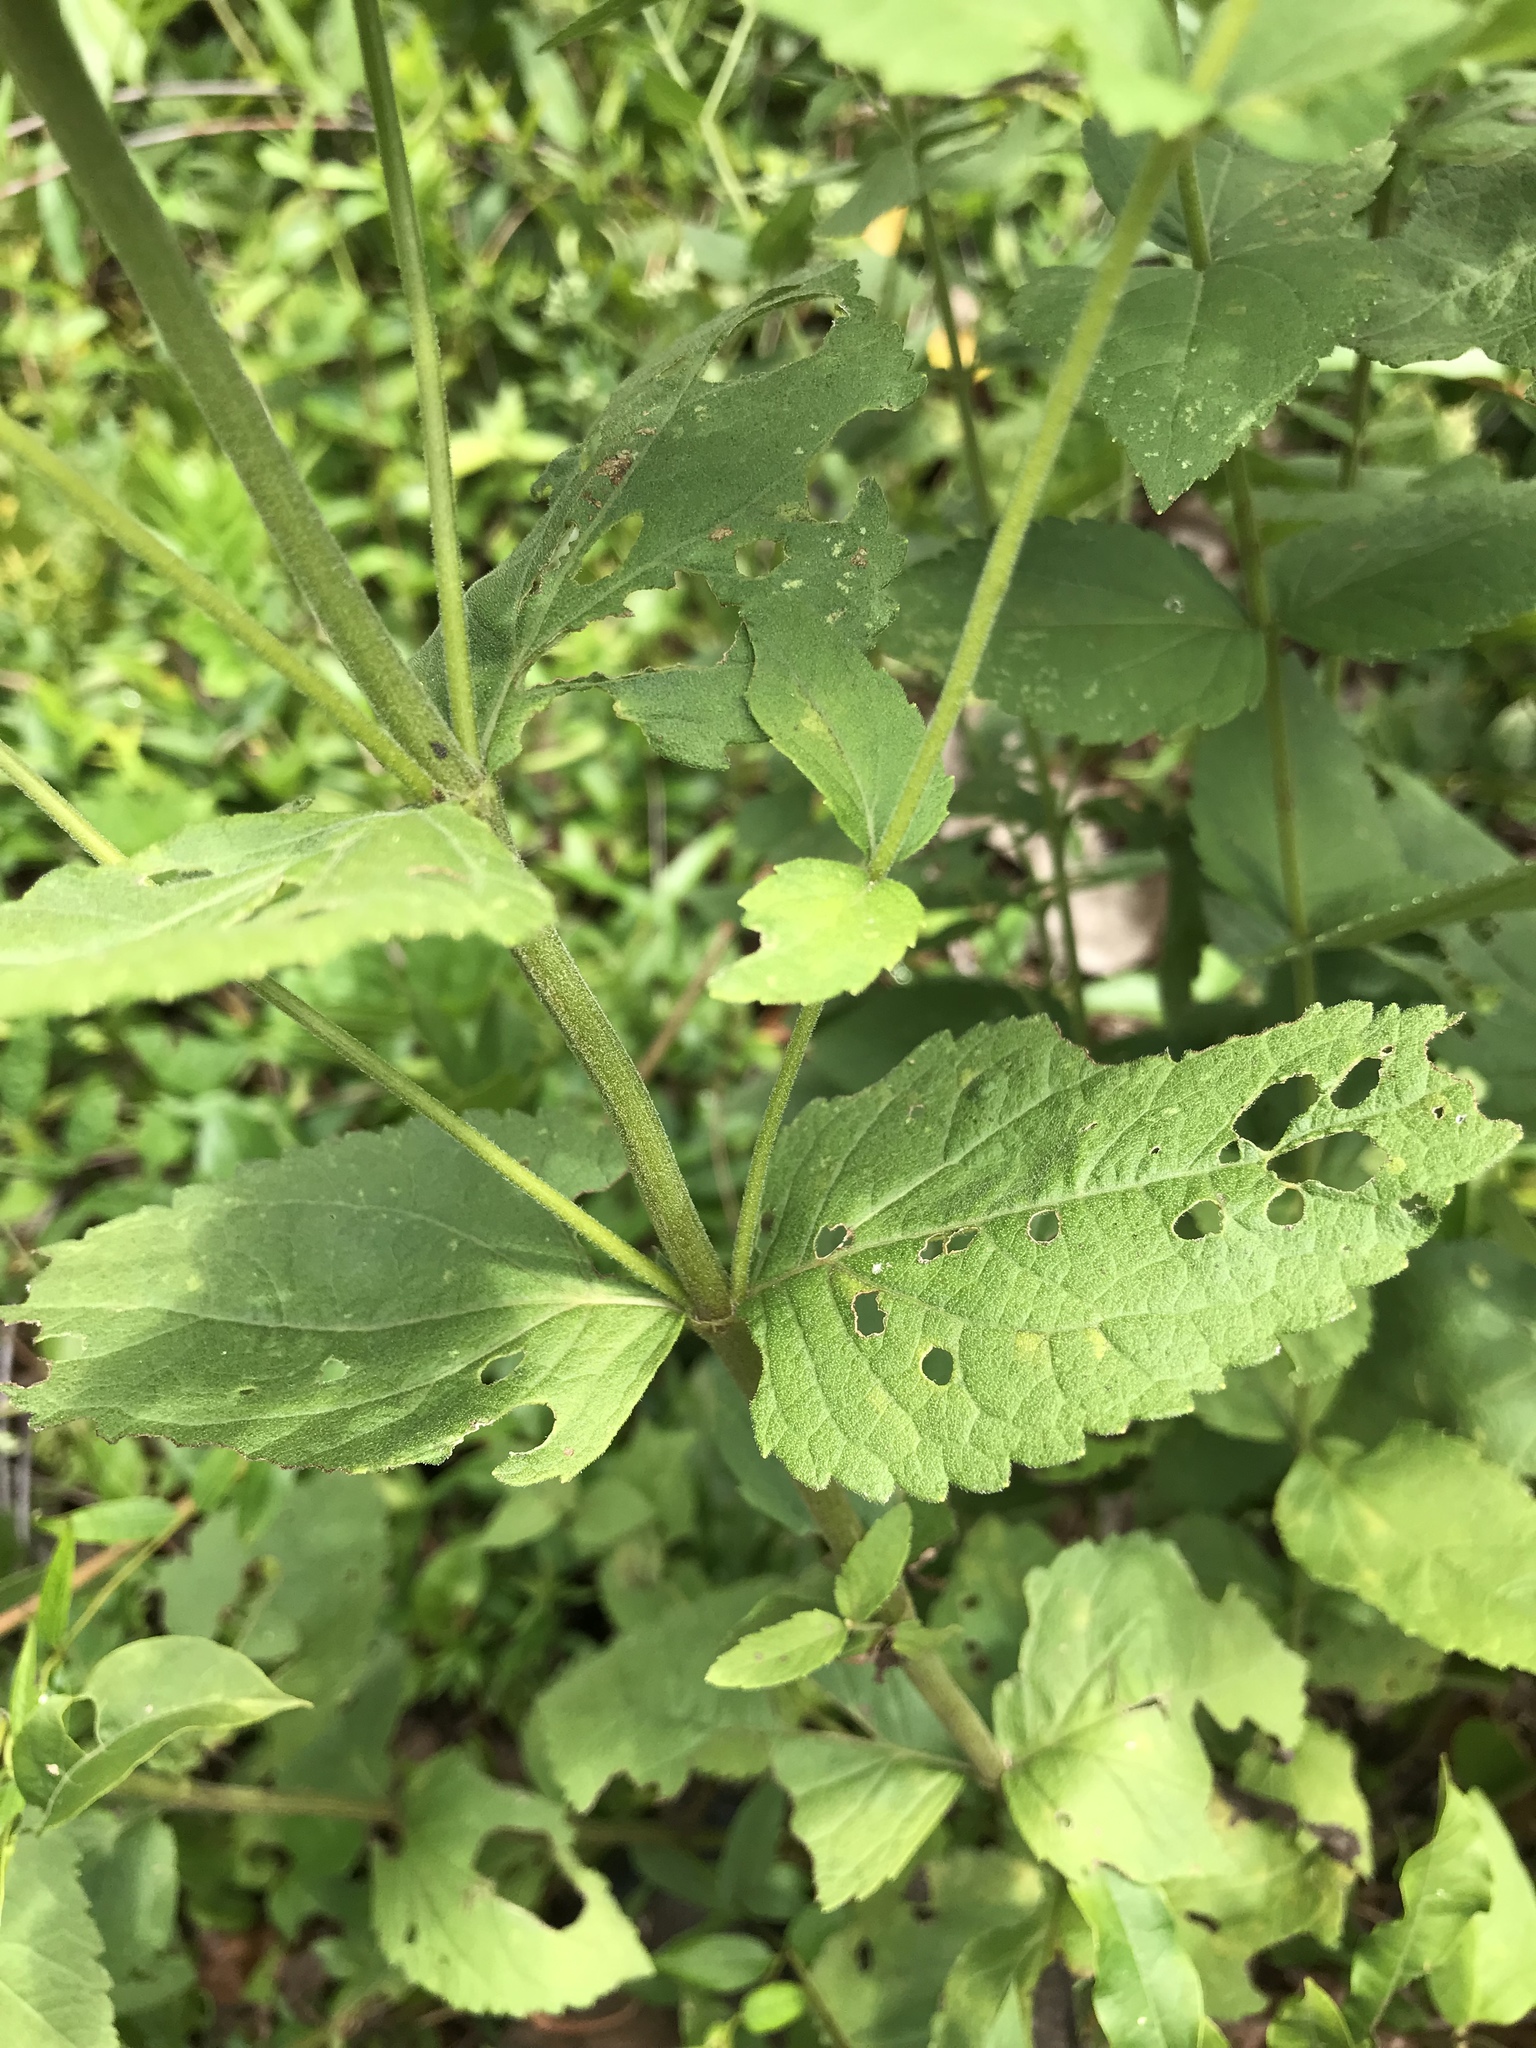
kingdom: Plantae
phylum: Tracheophyta
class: Magnoliopsida
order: Asterales
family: Asteraceae
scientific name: Asteraceae
